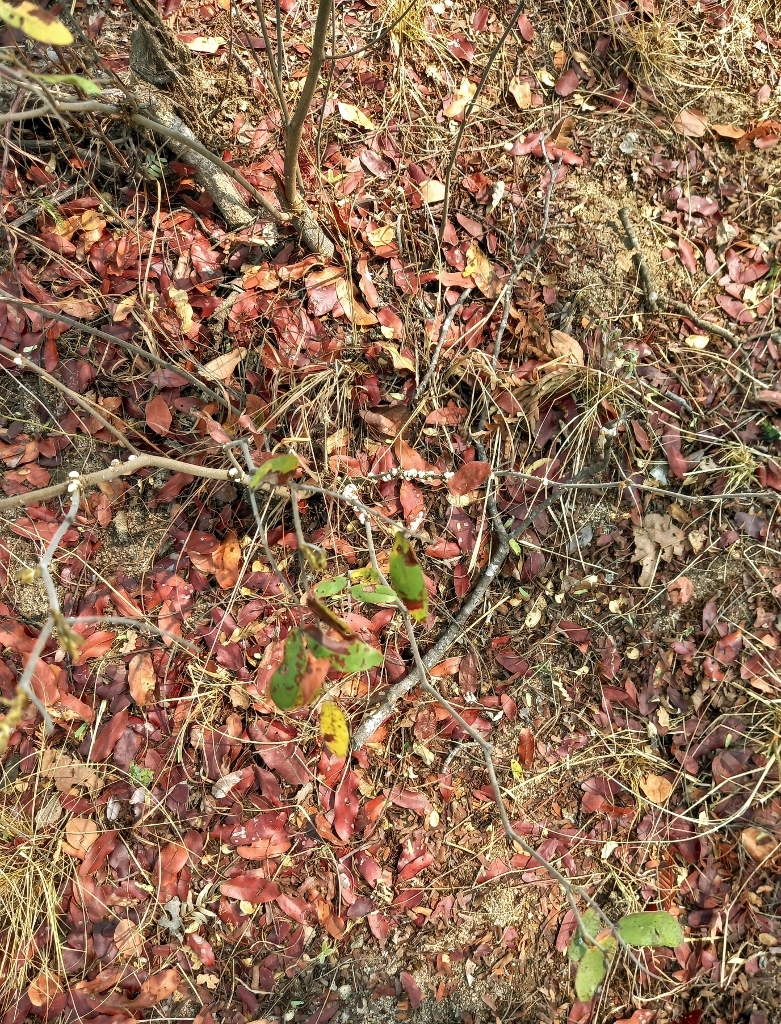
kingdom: Plantae
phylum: Tracheophyta
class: Magnoliopsida
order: Fabales
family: Fabaceae
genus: Julbernardia
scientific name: Julbernardia globiflora
